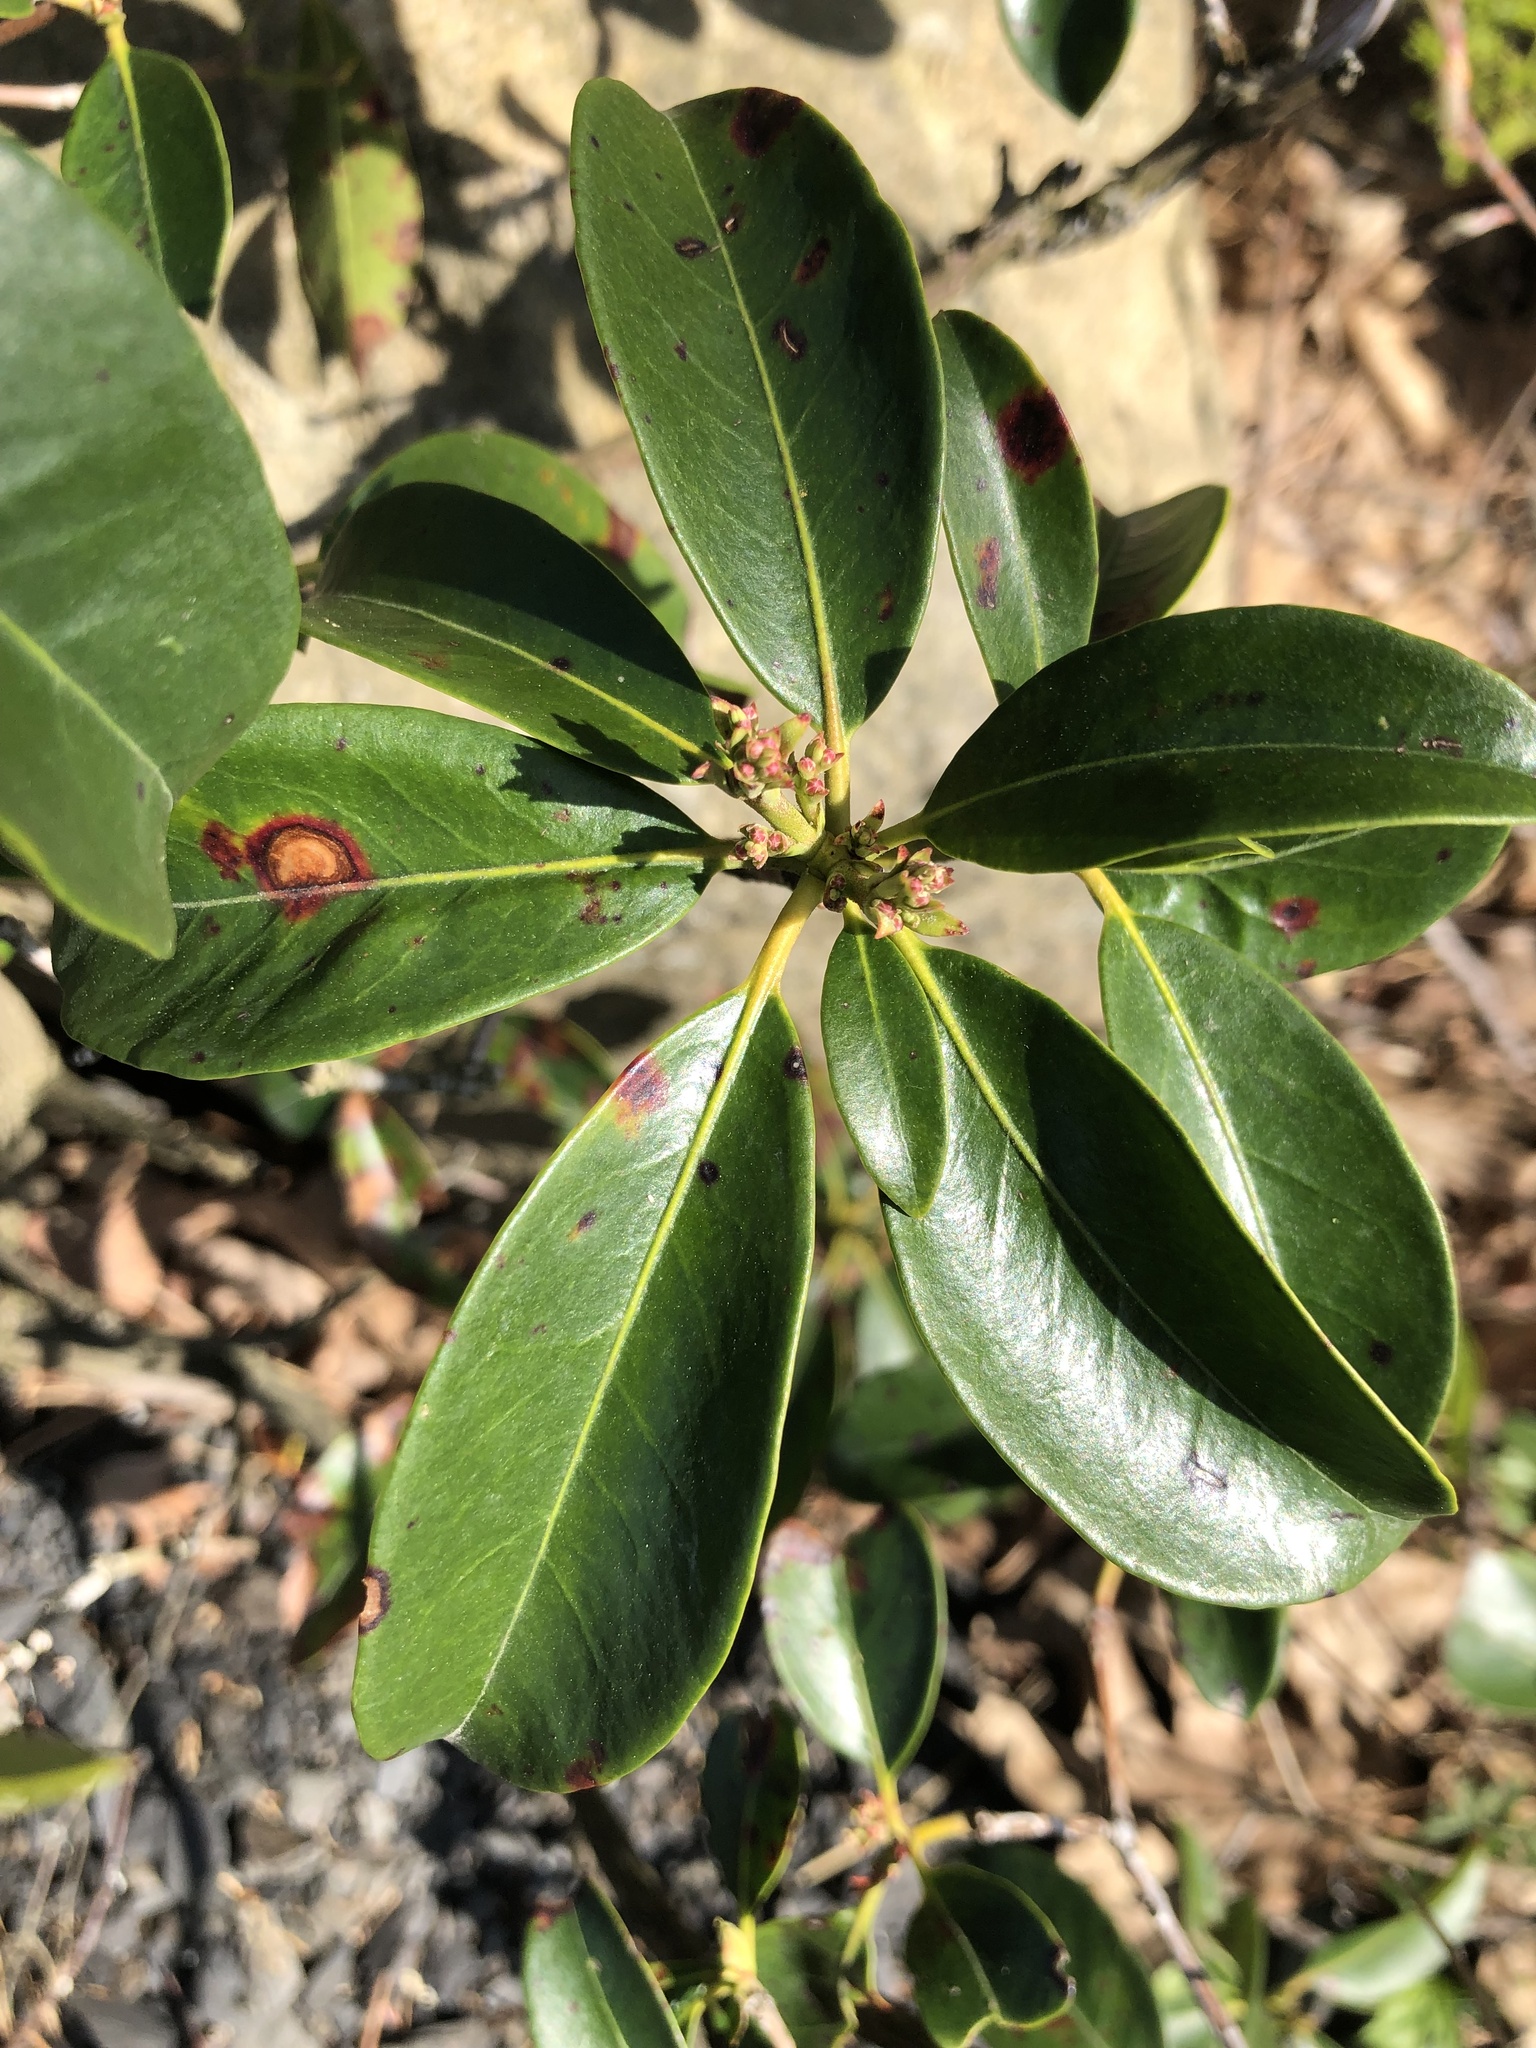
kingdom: Plantae
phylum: Tracheophyta
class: Magnoliopsida
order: Ericales
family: Ericaceae
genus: Kalmia
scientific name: Kalmia latifolia
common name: Mountain-laurel
